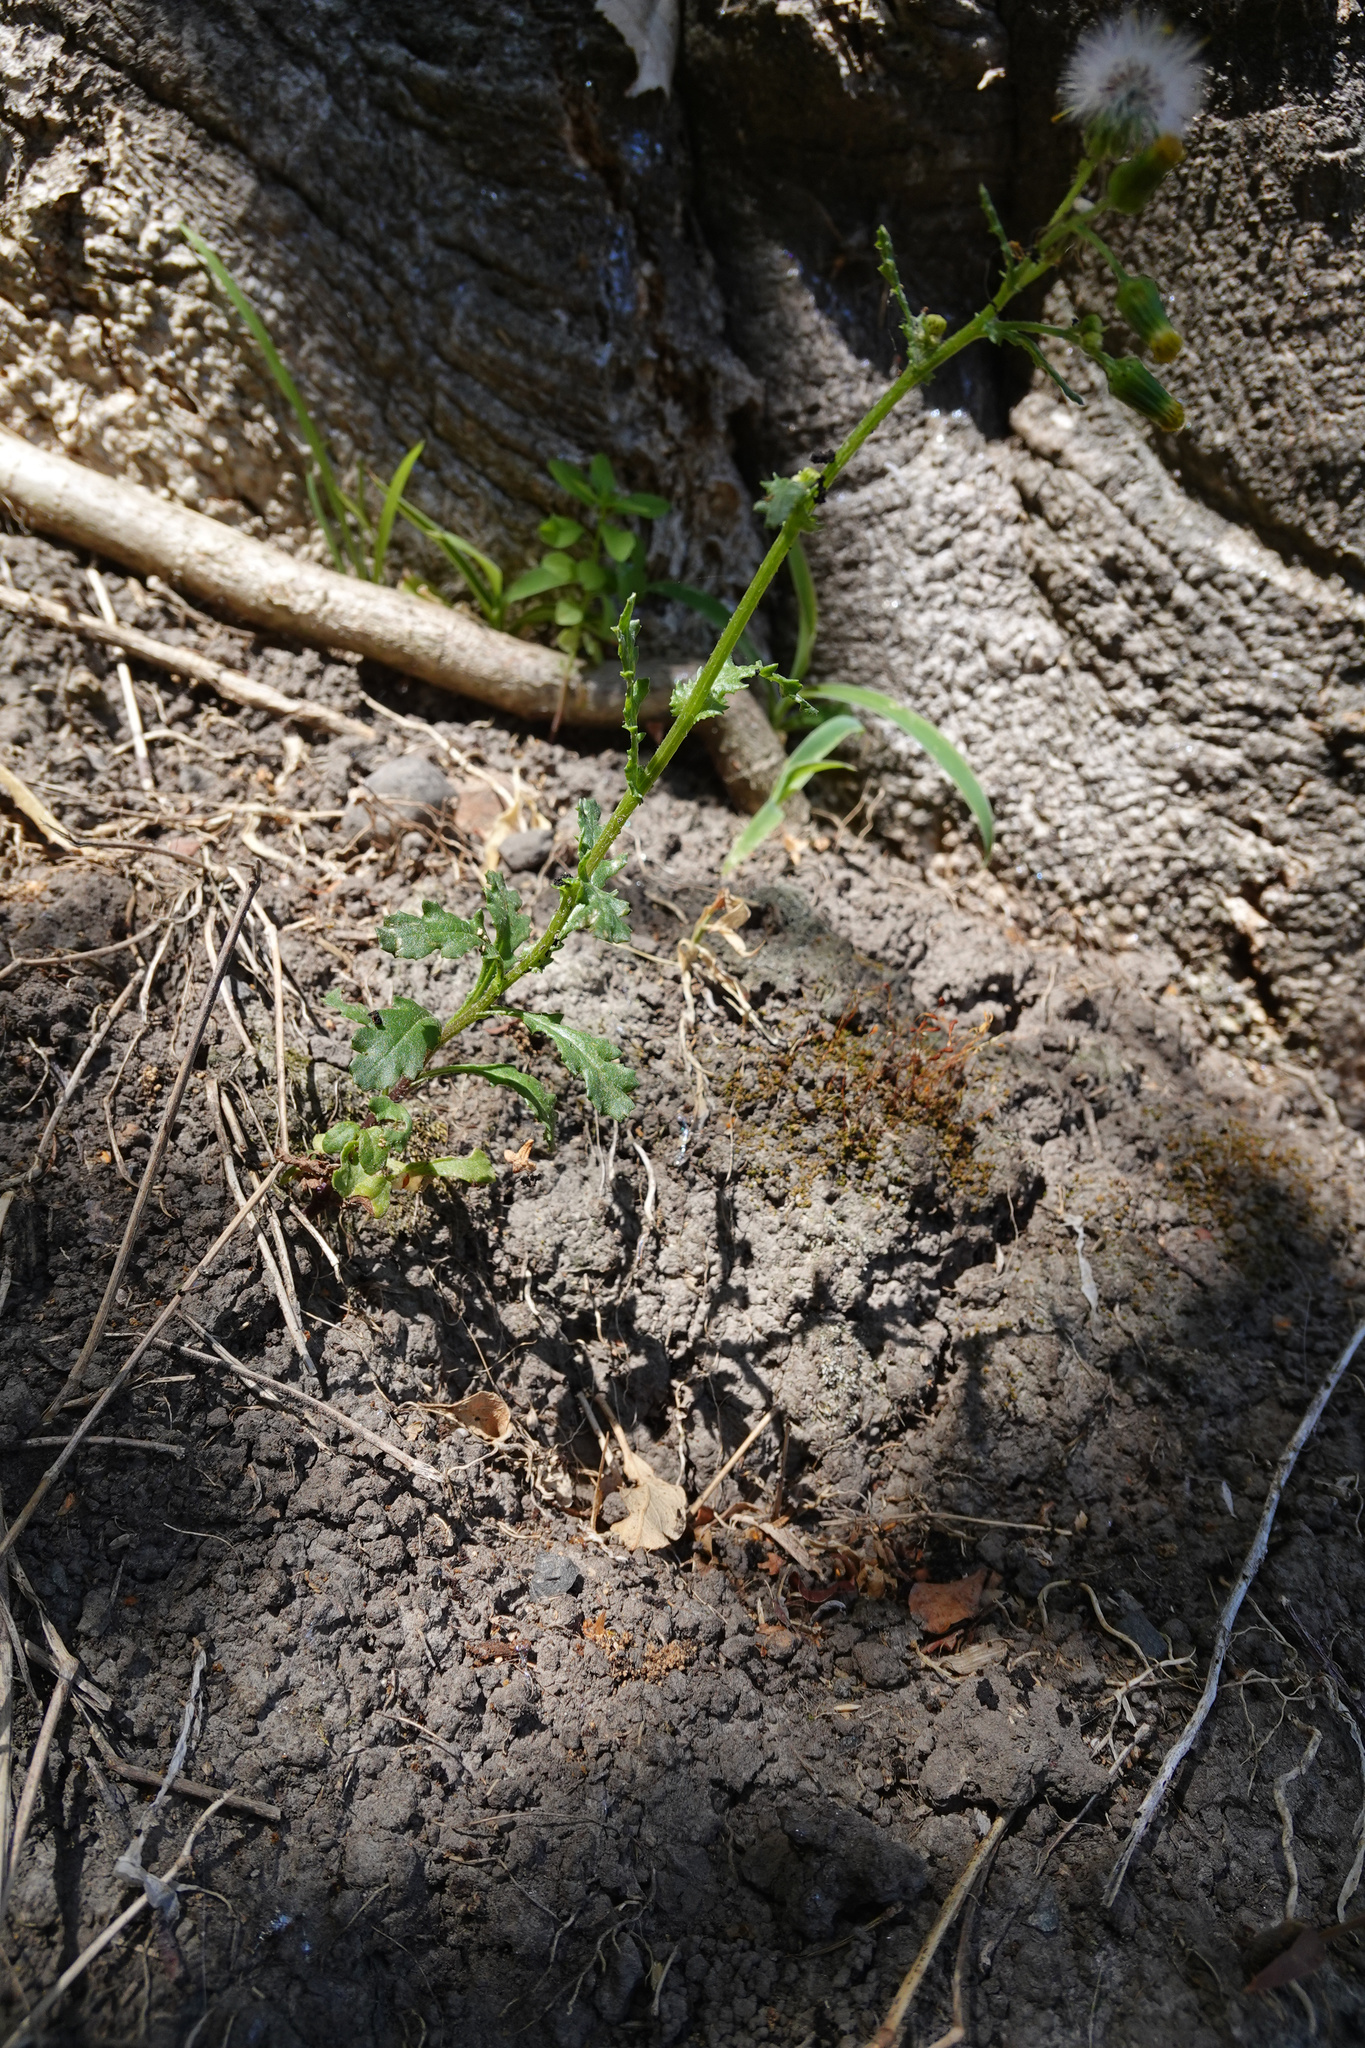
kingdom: Plantae
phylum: Tracheophyta
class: Magnoliopsida
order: Asterales
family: Asteraceae
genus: Senecio
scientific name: Senecio vulgaris
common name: Old-man-in-the-spring
